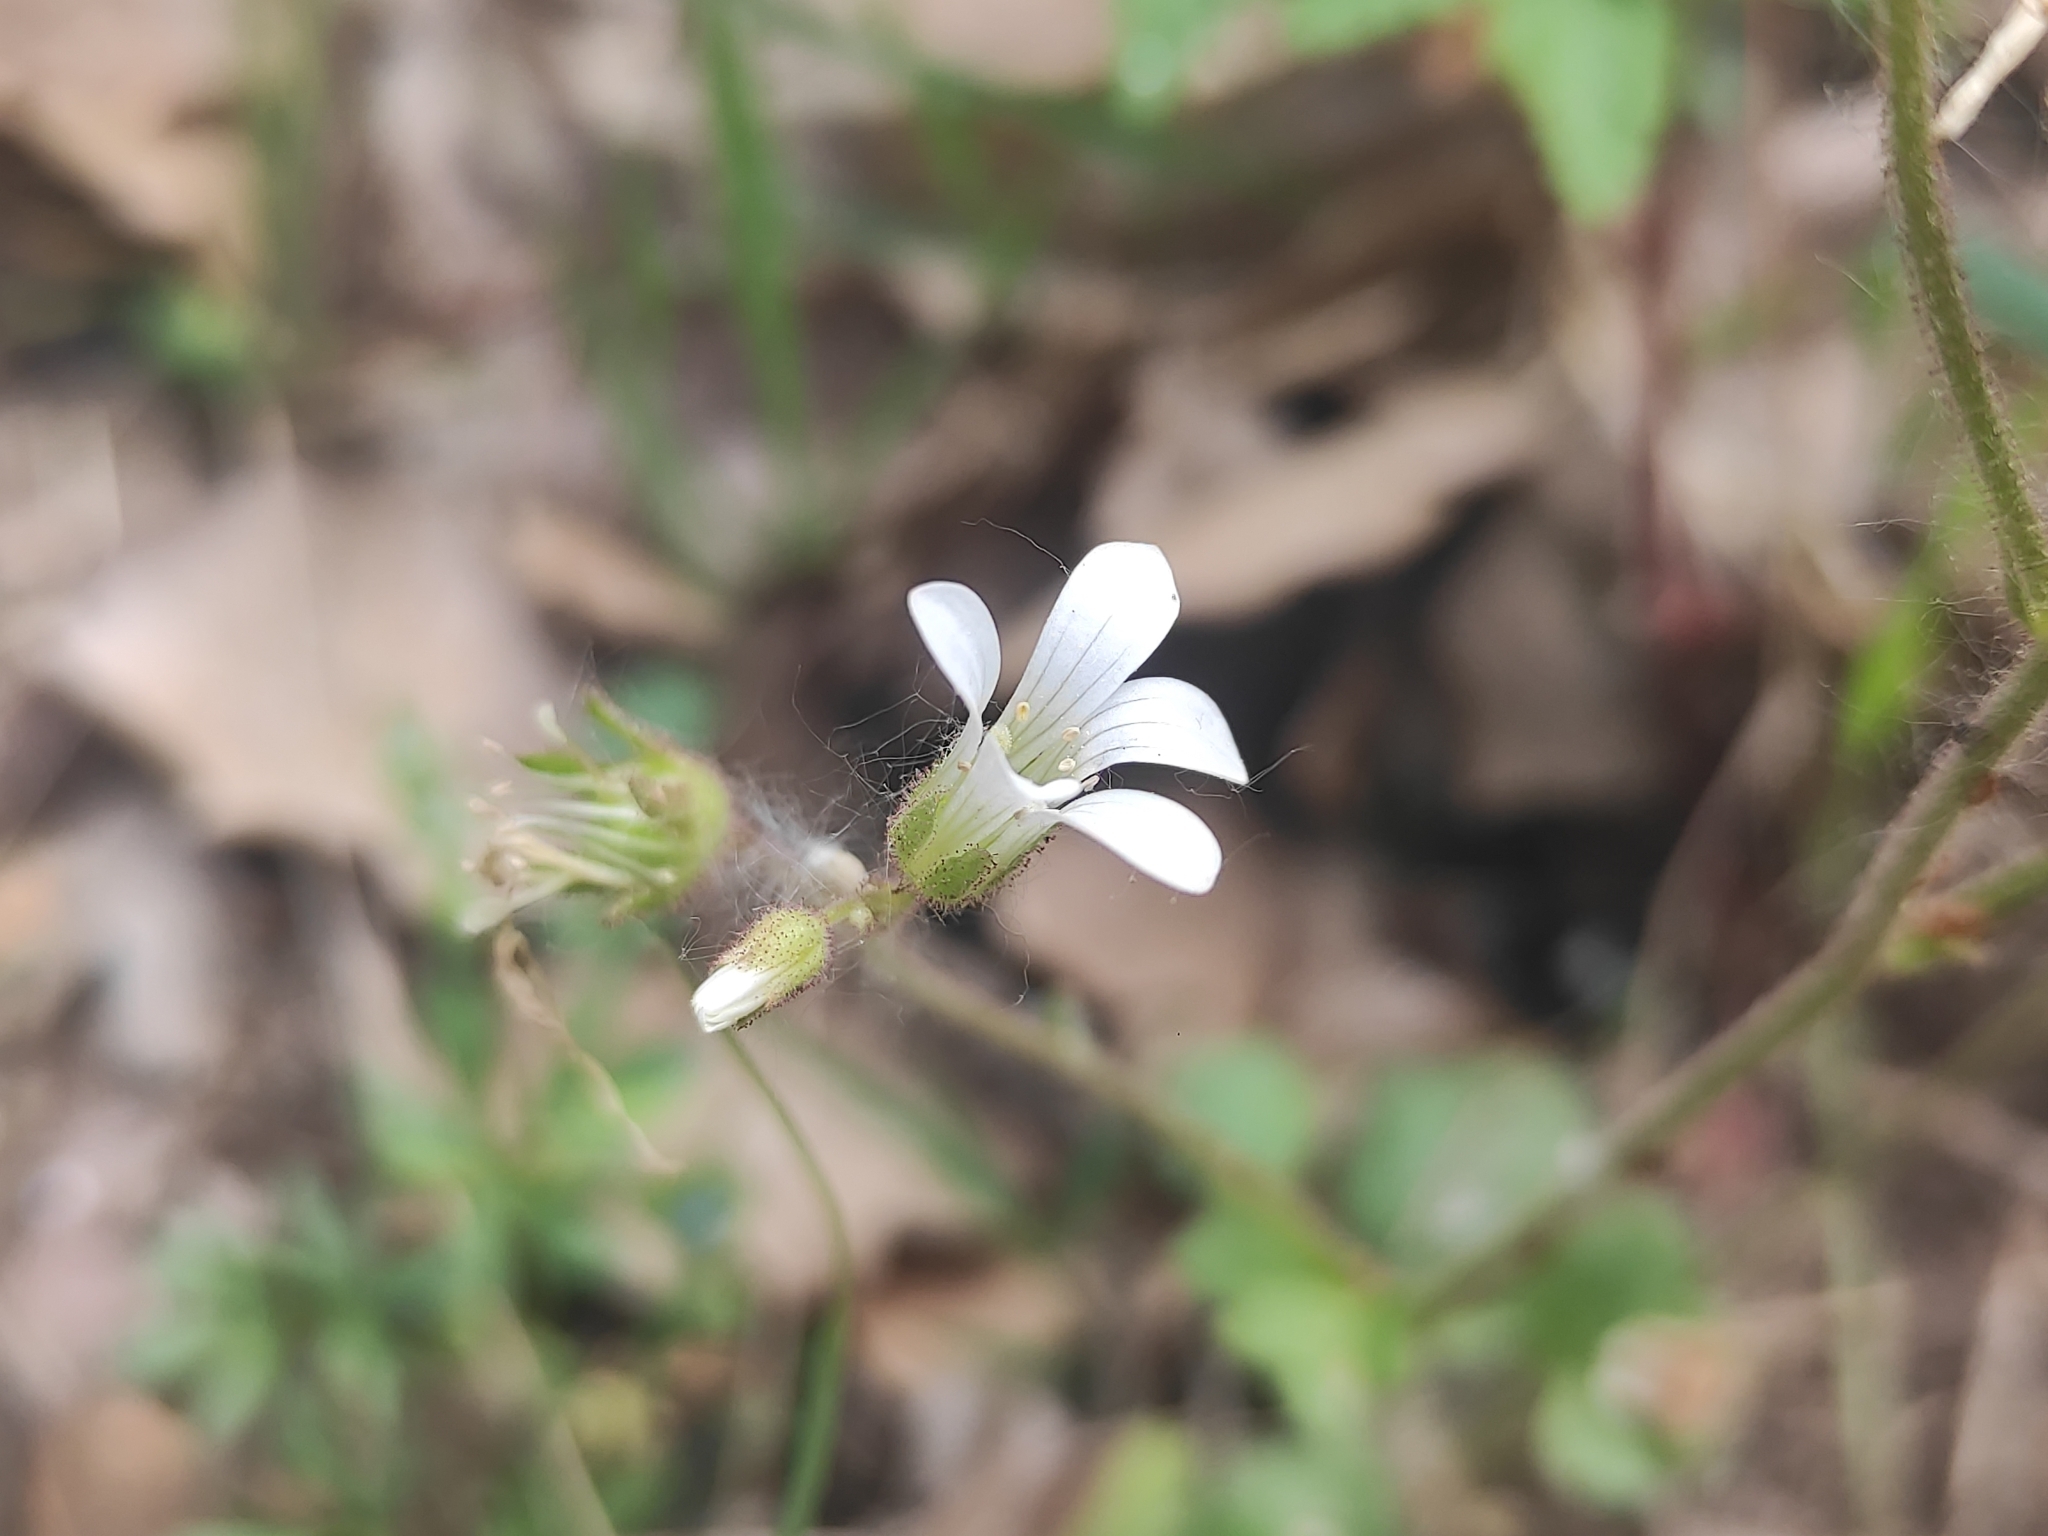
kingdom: Plantae
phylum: Tracheophyta
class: Magnoliopsida
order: Saxifragales
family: Saxifragaceae
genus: Saxifraga
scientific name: Saxifraga granulata
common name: Meadow saxifrage
